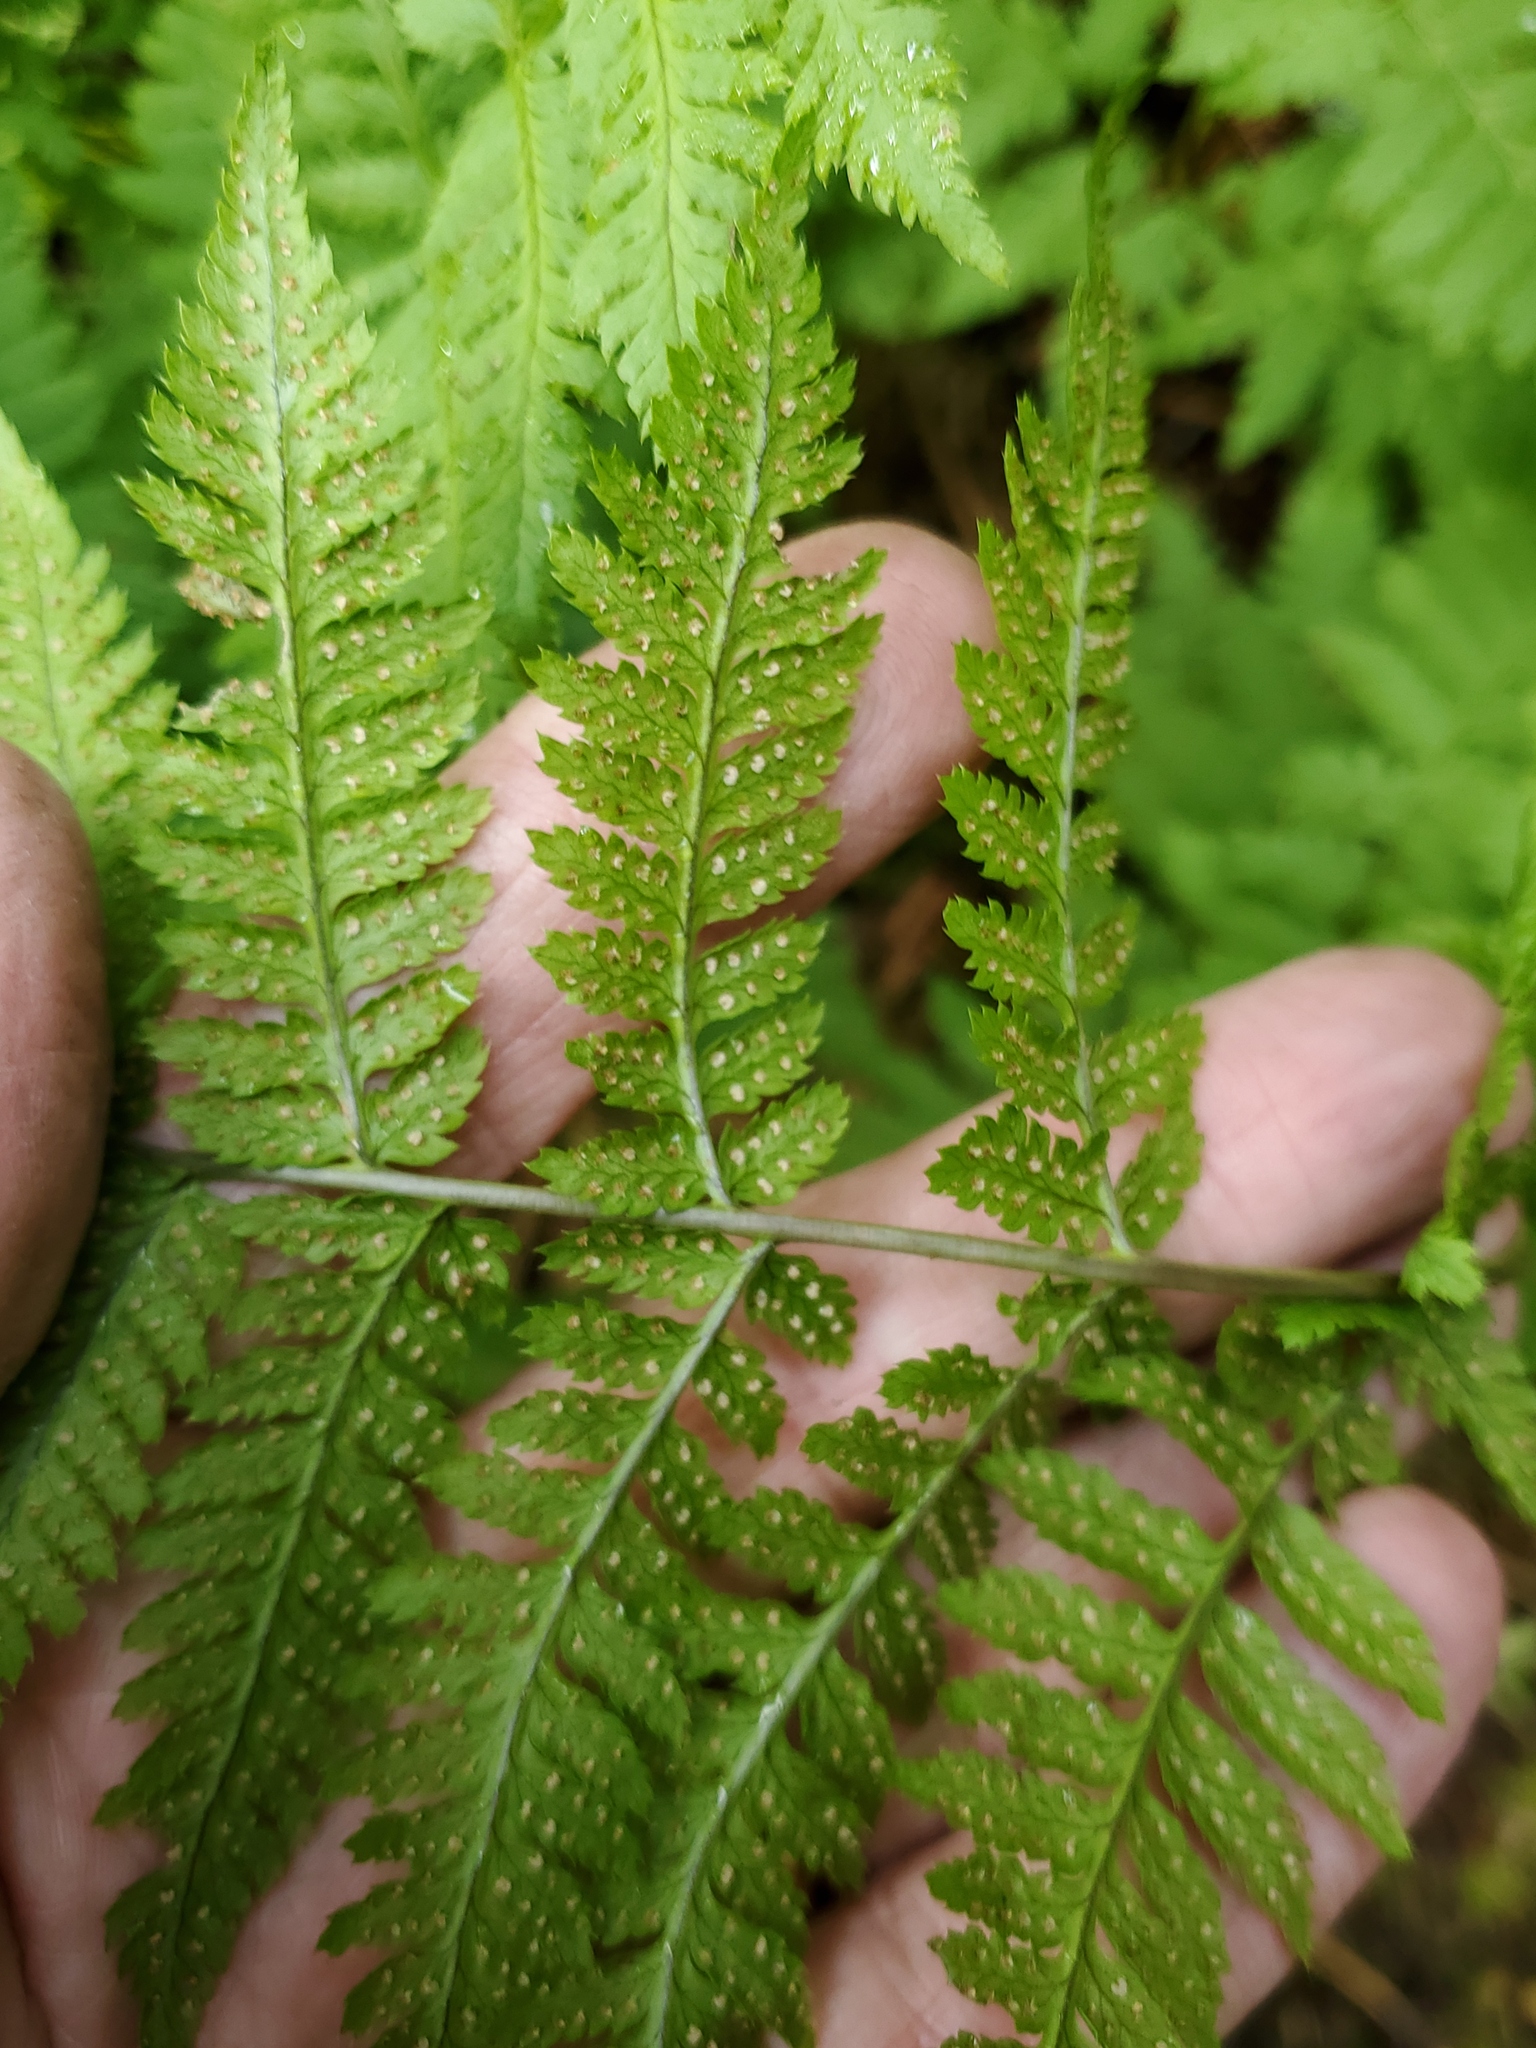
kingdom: Plantae
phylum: Tracheophyta
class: Polypodiopsida
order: Polypodiales
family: Dryopteridaceae
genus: Dryopteris
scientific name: Dryopteris carthusiana
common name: Narrow buckler-fern
